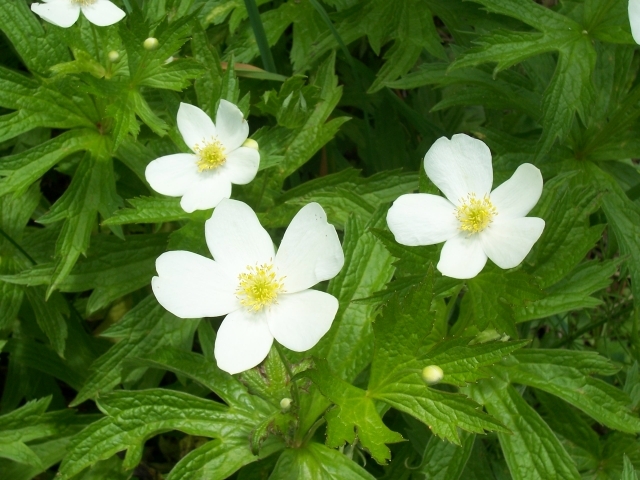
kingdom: Plantae
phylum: Tracheophyta
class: Magnoliopsida
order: Ranunculales
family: Ranunculaceae
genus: Anemonastrum
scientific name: Anemonastrum canadense
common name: Canada anemone
